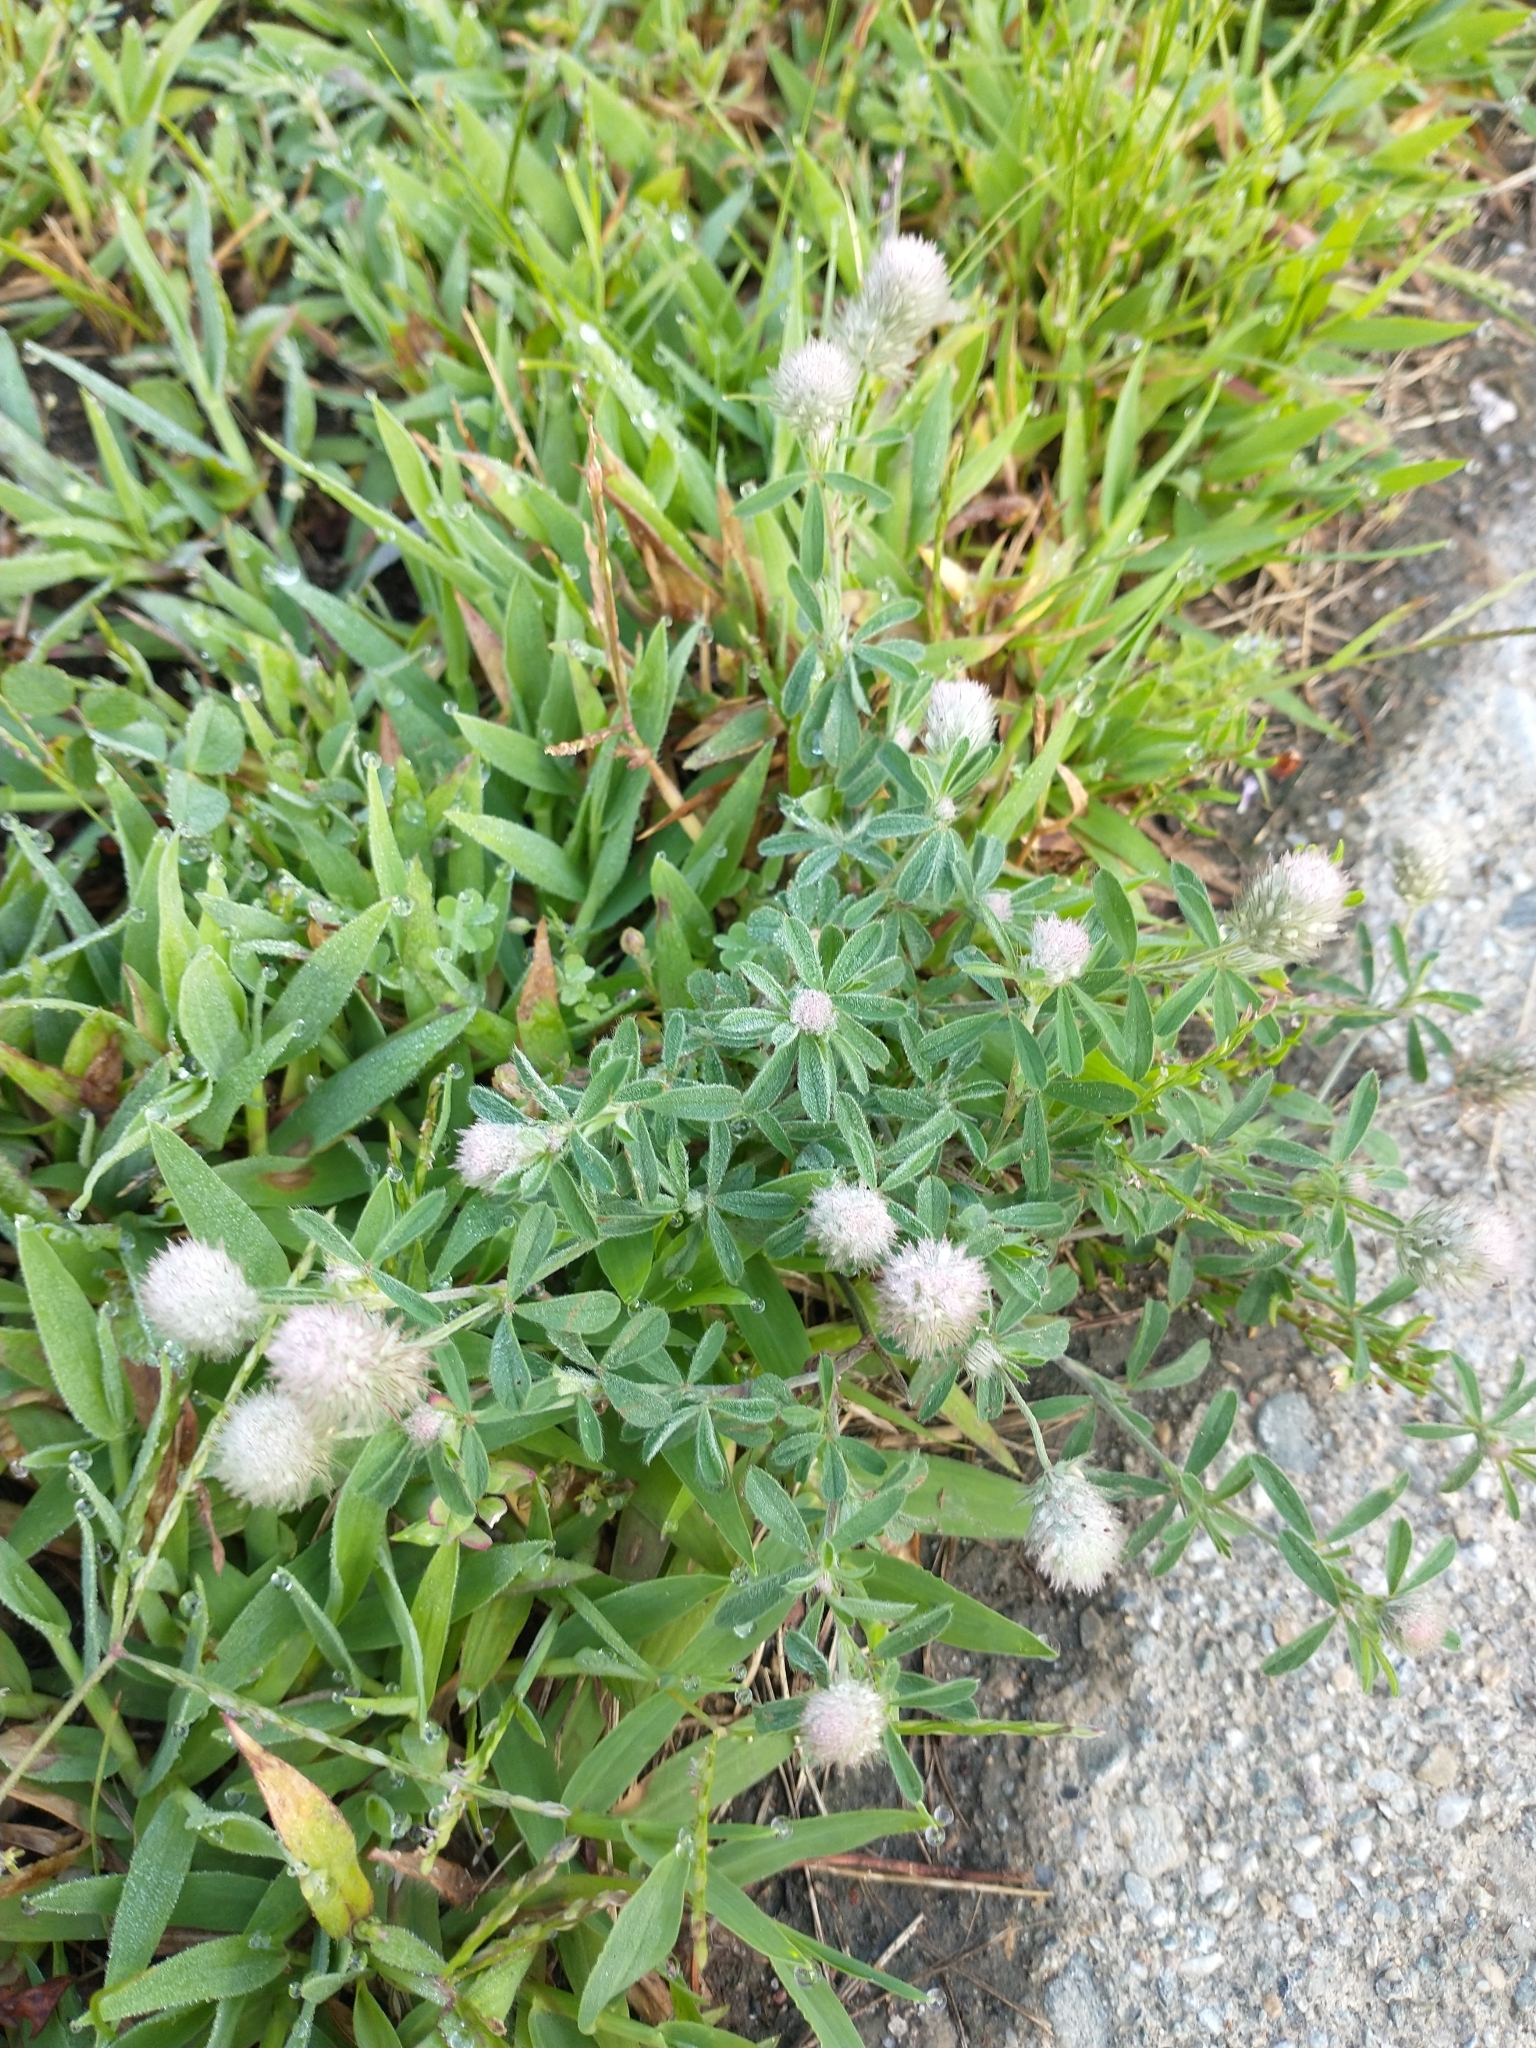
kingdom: Plantae
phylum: Tracheophyta
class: Magnoliopsida
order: Fabales
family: Fabaceae
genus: Trifolium
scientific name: Trifolium arvense
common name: Hare's-foot clover
